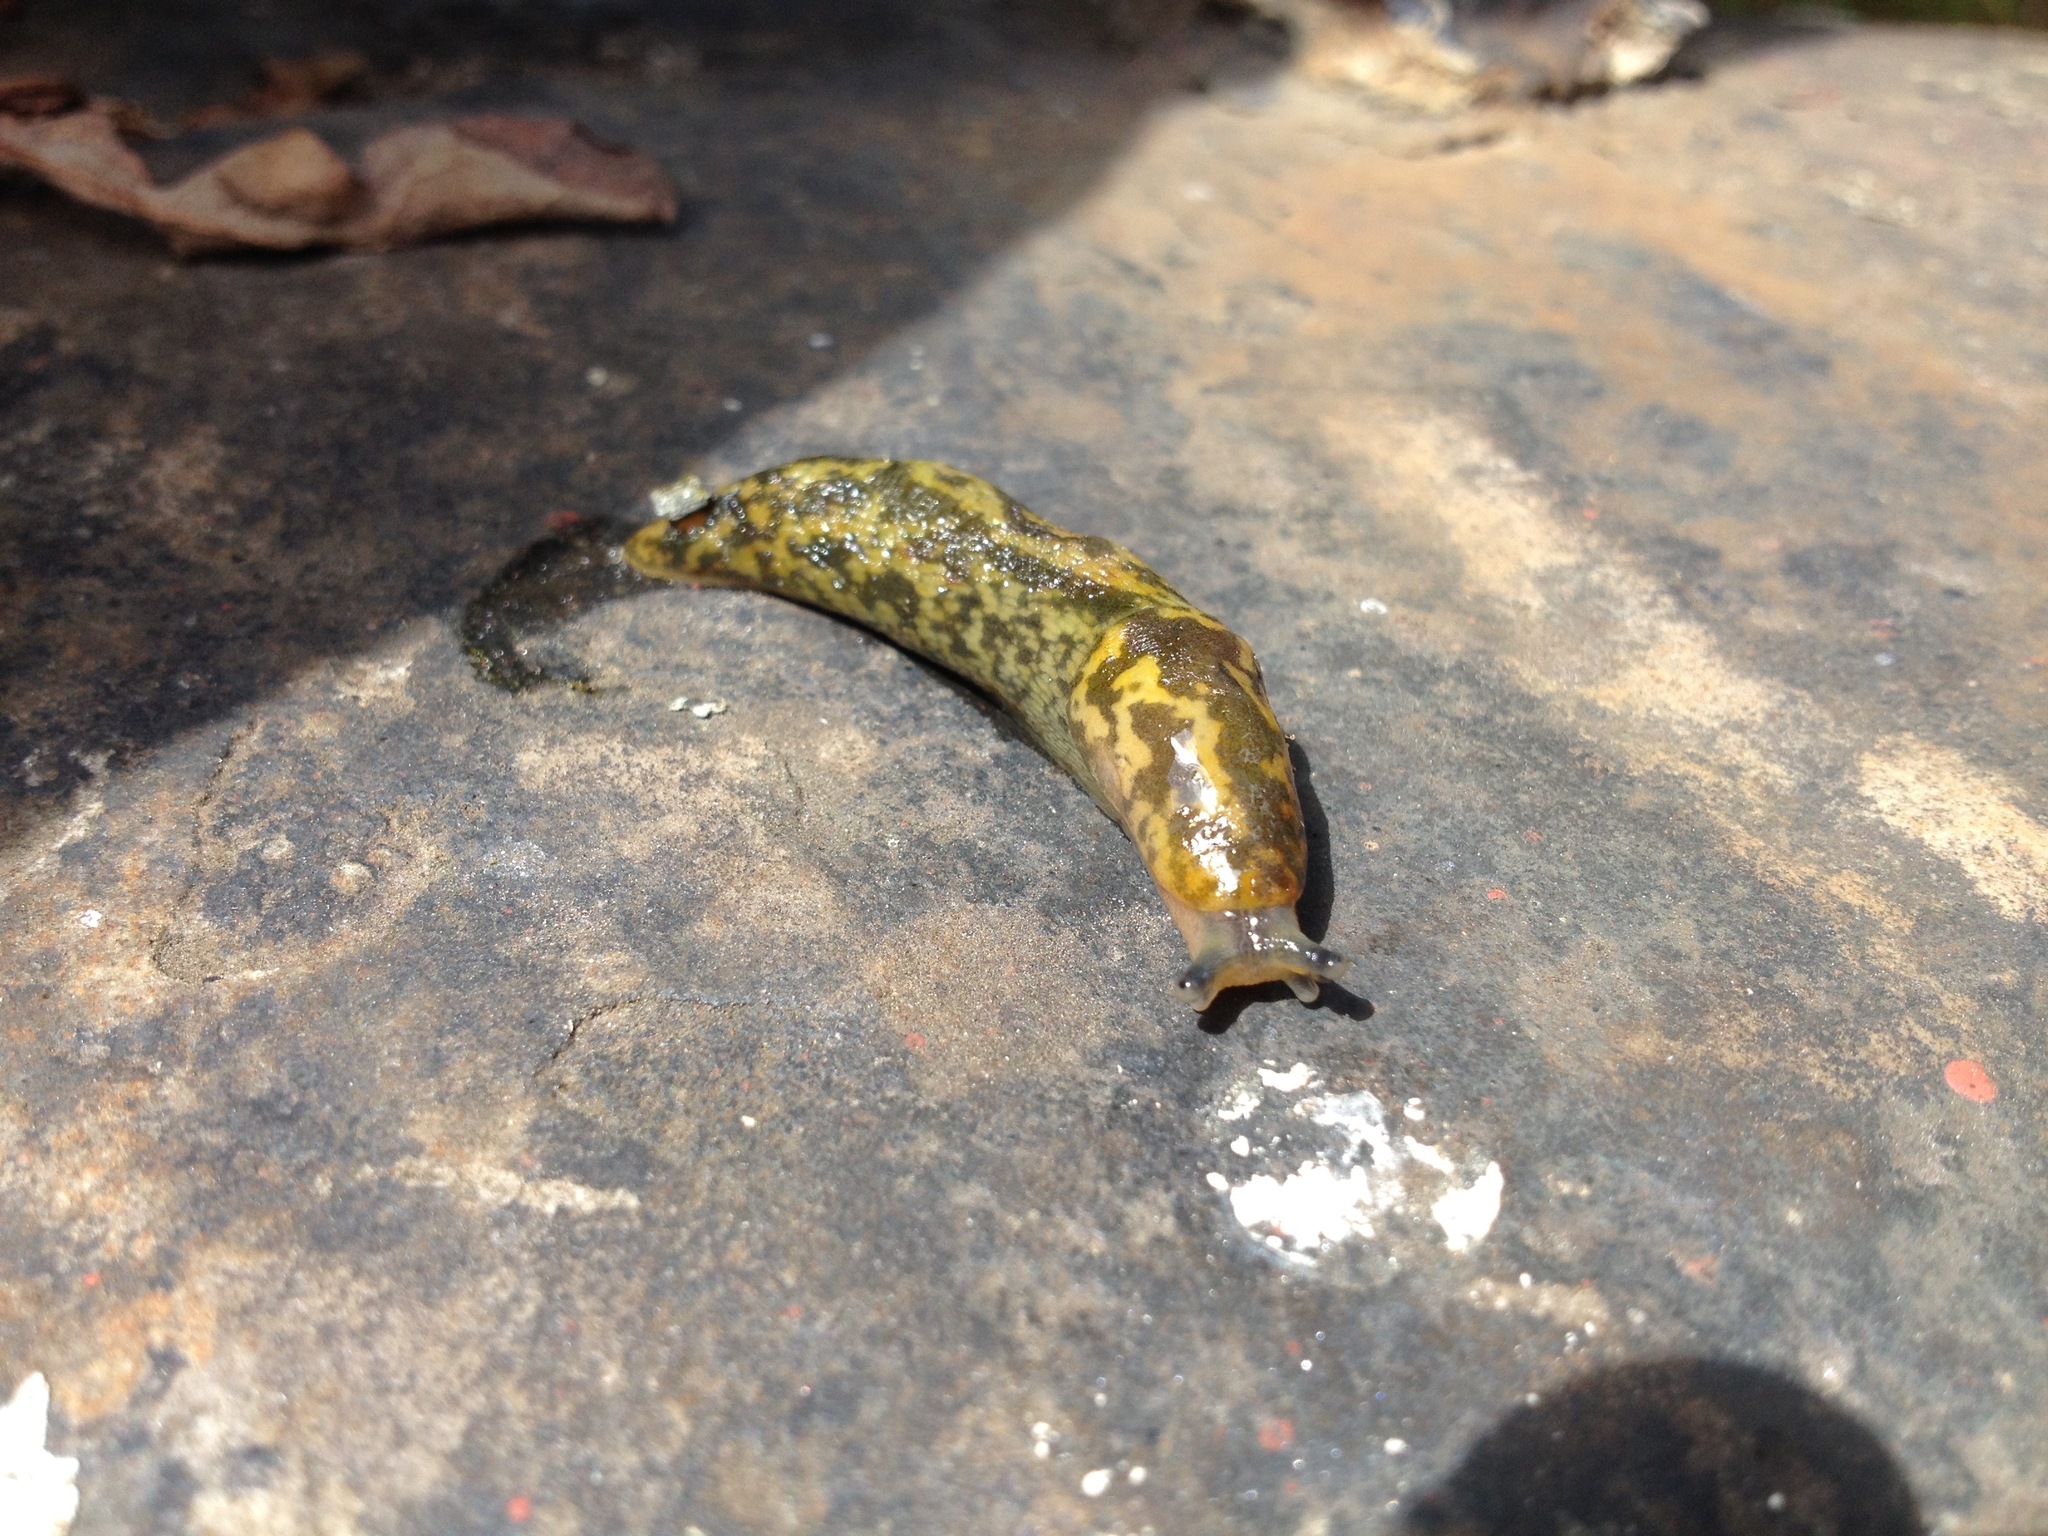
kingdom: Animalia
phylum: Mollusca
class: Gastropoda
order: Stylommatophora
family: Limacidae
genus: Limacus
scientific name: Limacus maculatus
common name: Irish yellow slug
